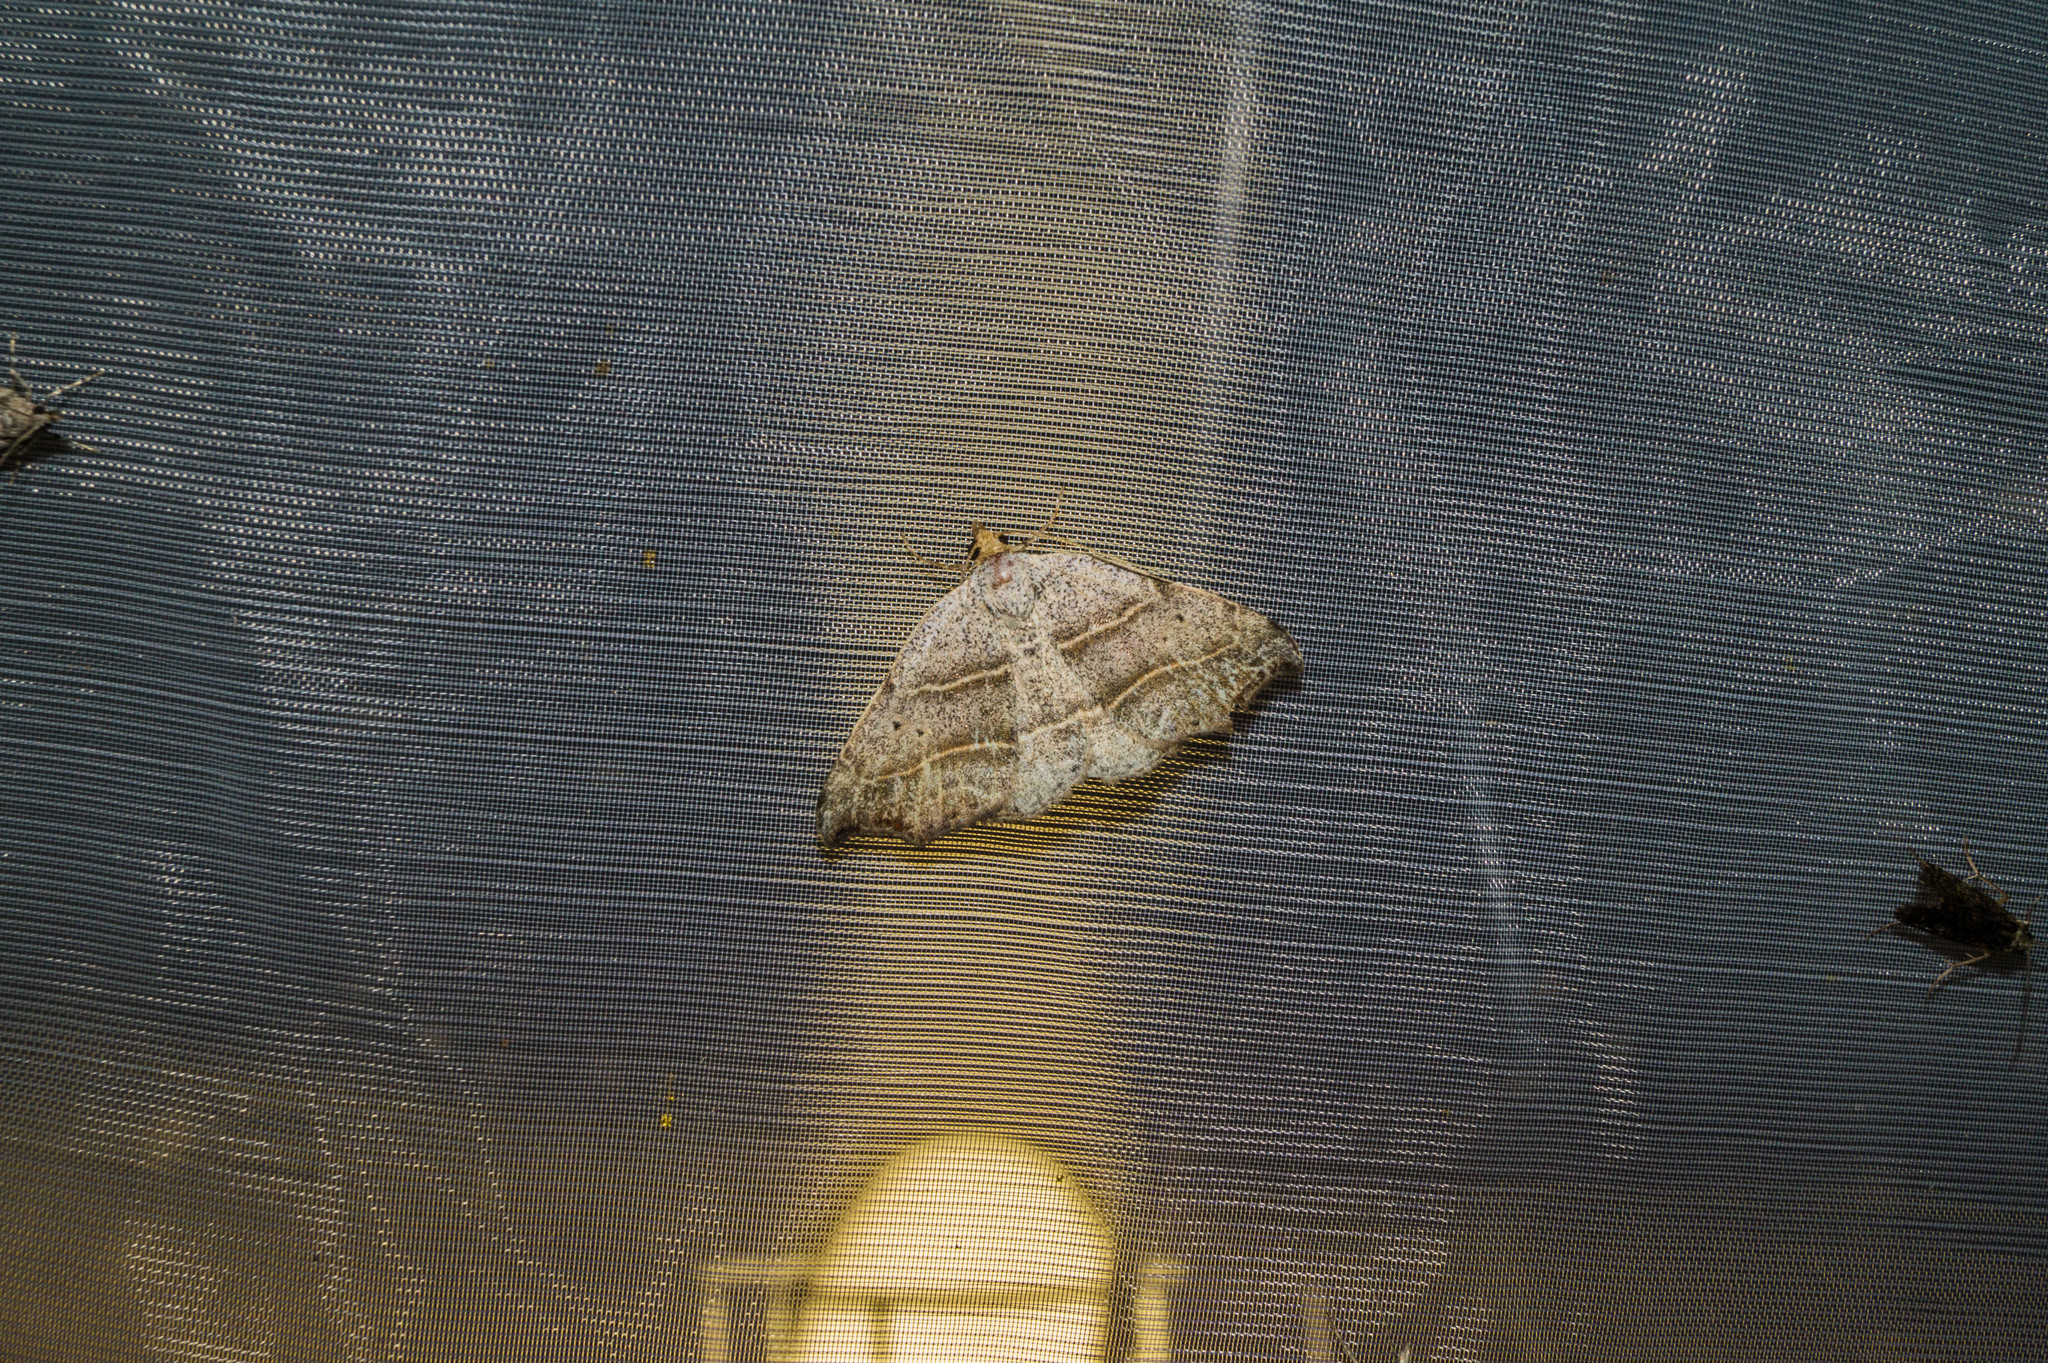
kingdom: Animalia
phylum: Arthropoda
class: Insecta
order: Lepidoptera
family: Erebidae
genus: Laspeyria
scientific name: Laspeyria flexula
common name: Beautiful hook-tip
